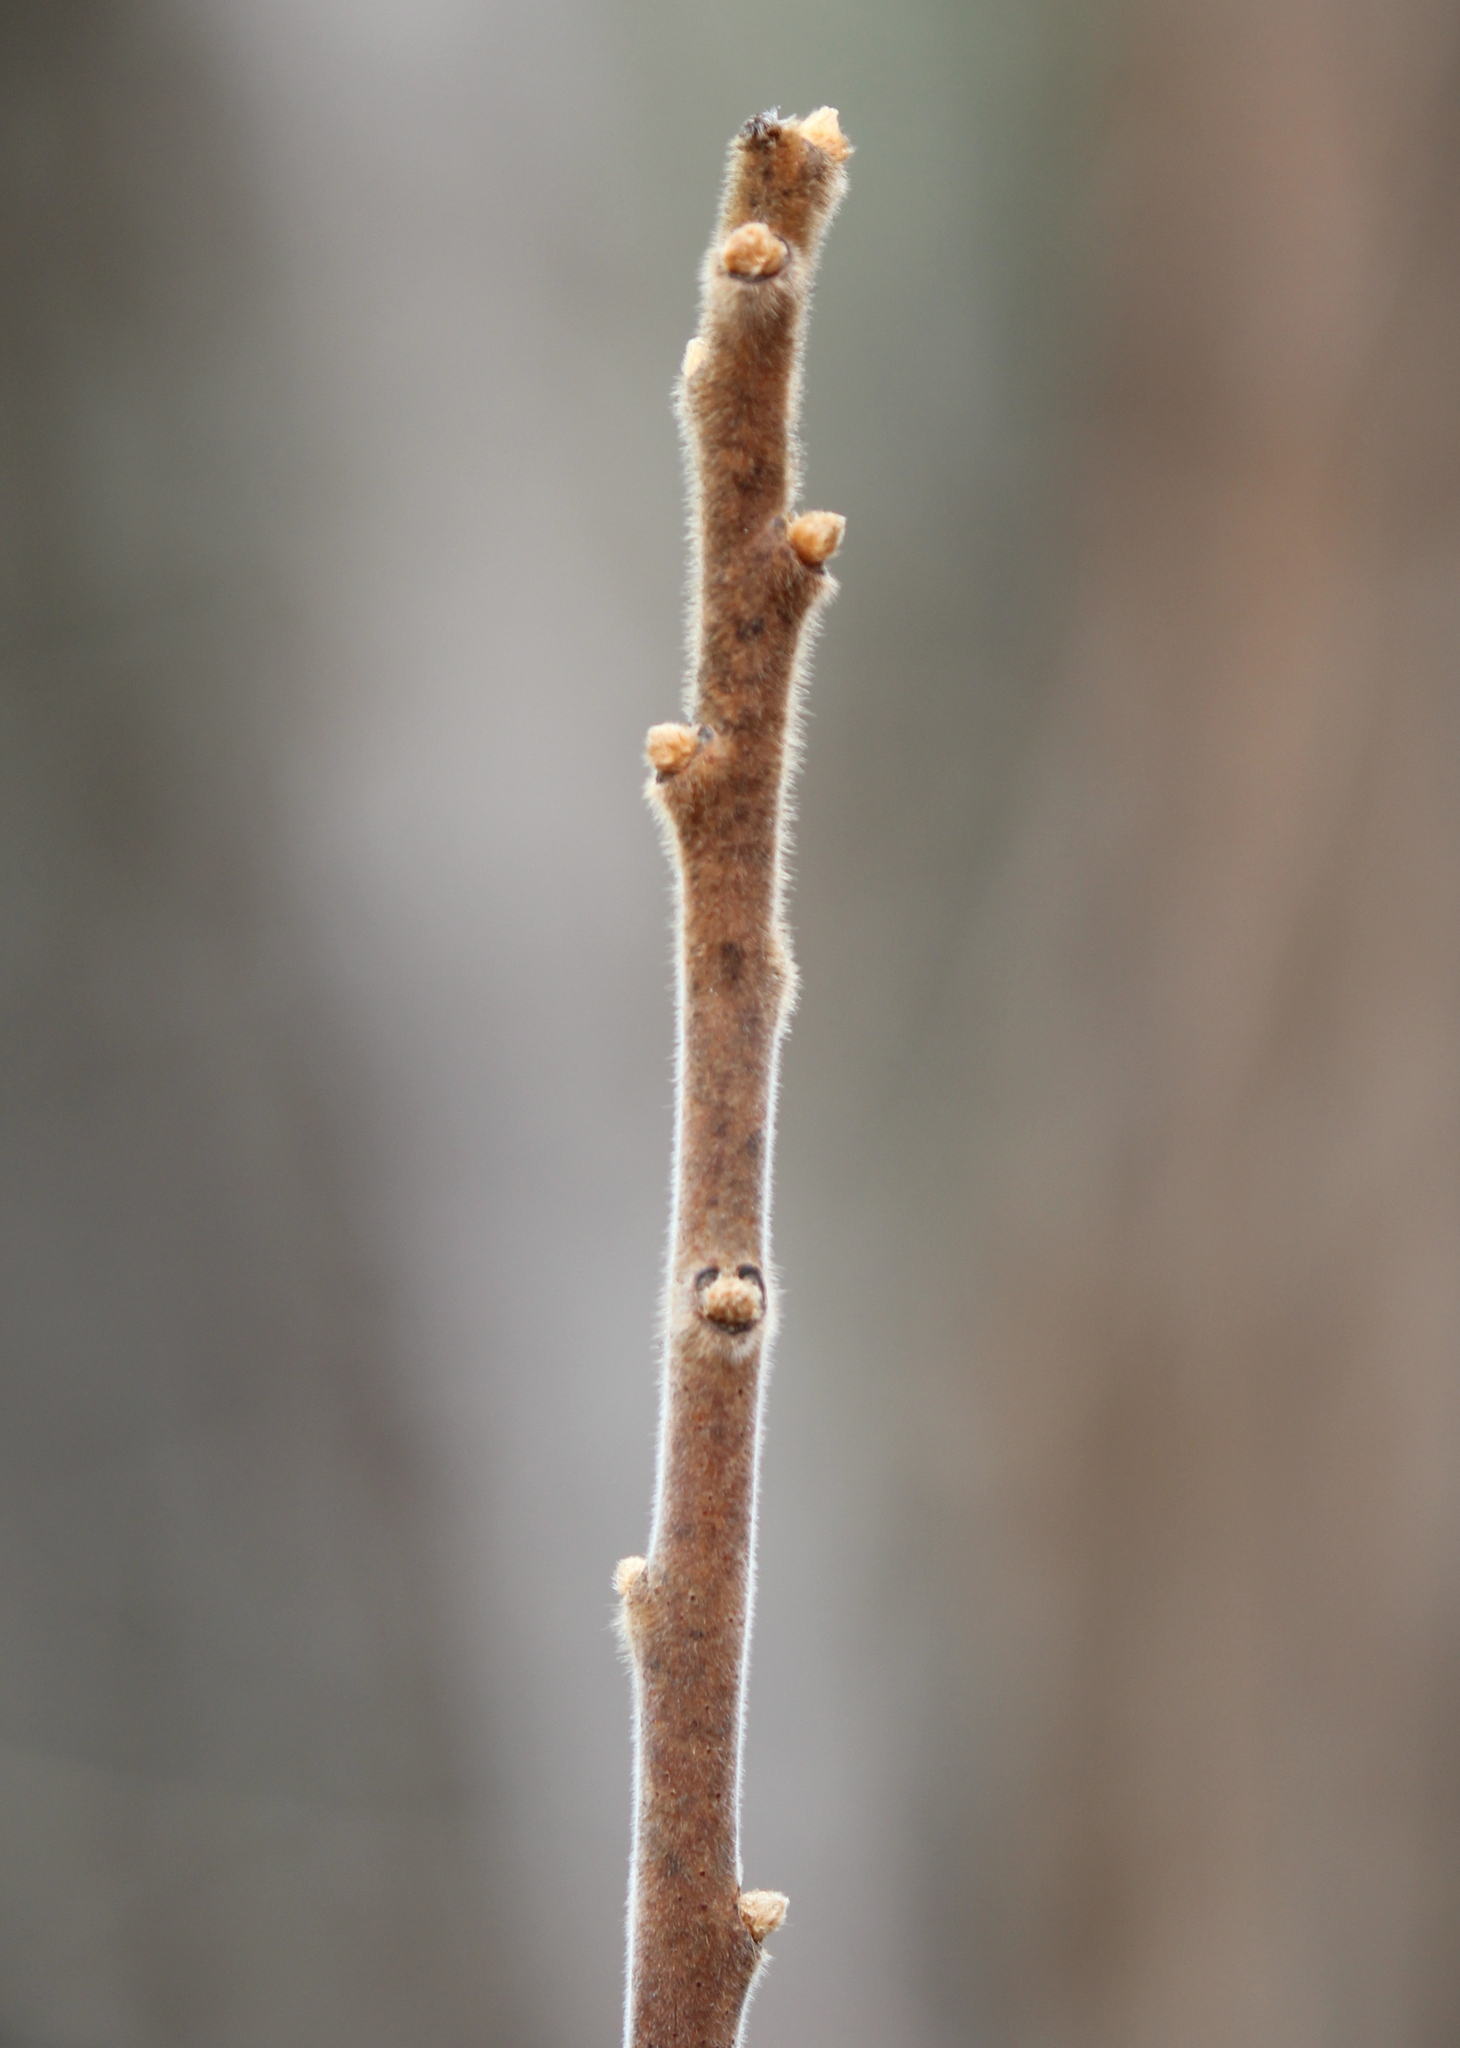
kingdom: Plantae
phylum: Tracheophyta
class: Magnoliopsida
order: Sapindales
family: Anacardiaceae
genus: Rhus
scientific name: Rhus typhina
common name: Staghorn sumac
